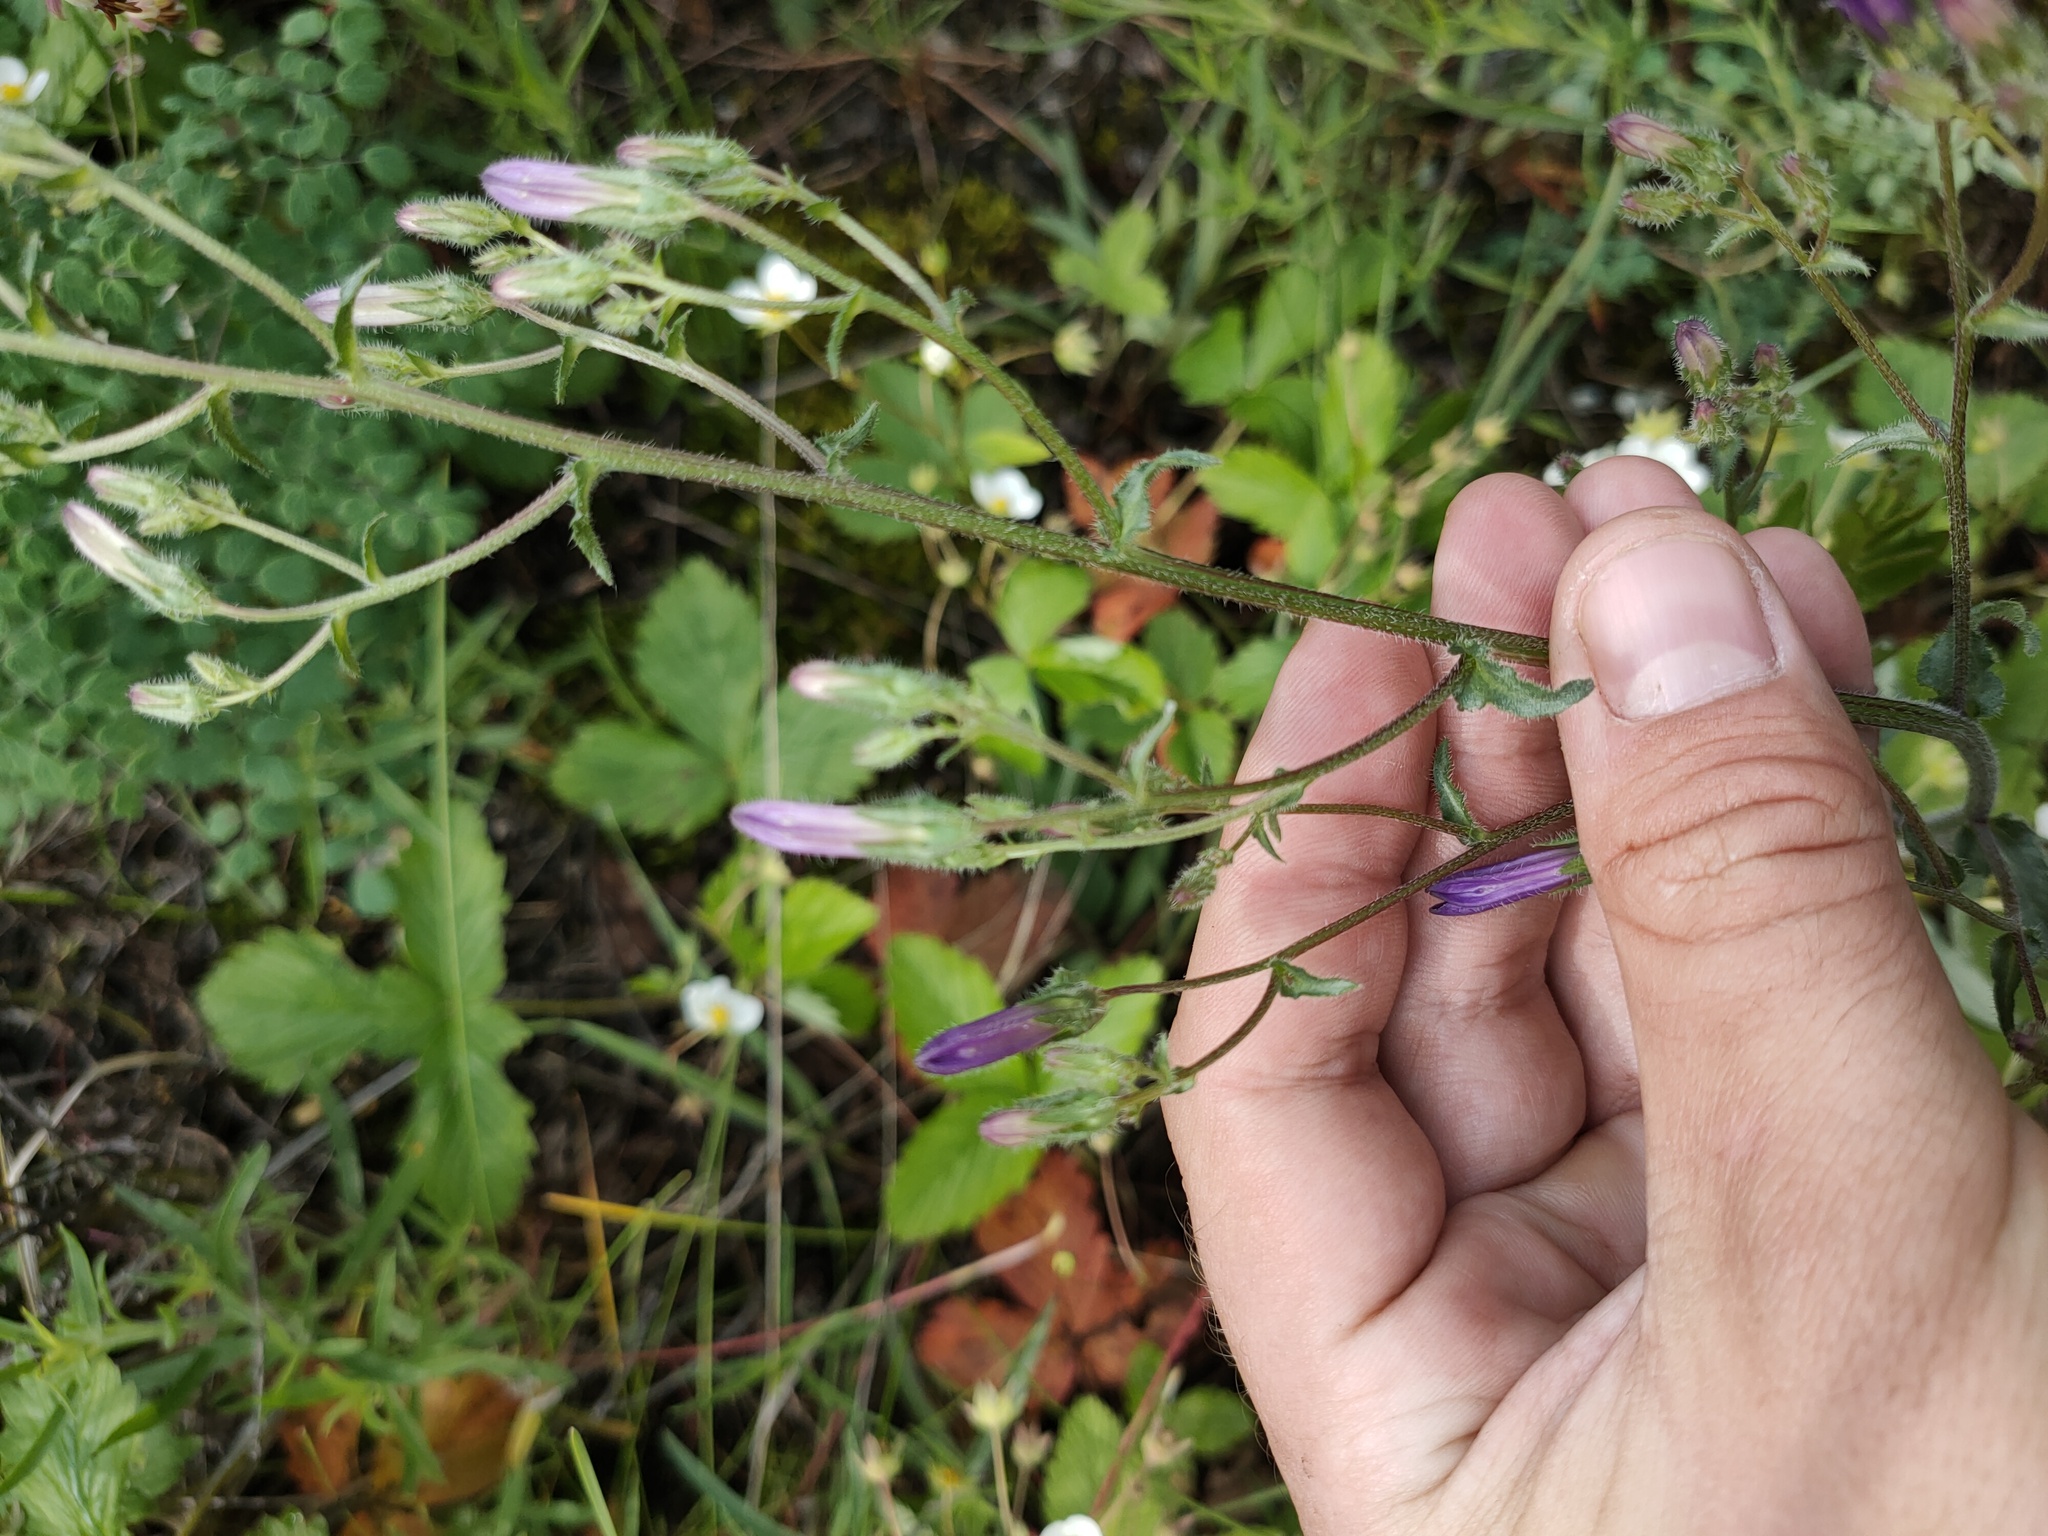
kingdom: Plantae
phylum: Tracheophyta
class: Magnoliopsida
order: Asterales
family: Campanulaceae
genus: Campanula
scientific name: Campanula sibirica
